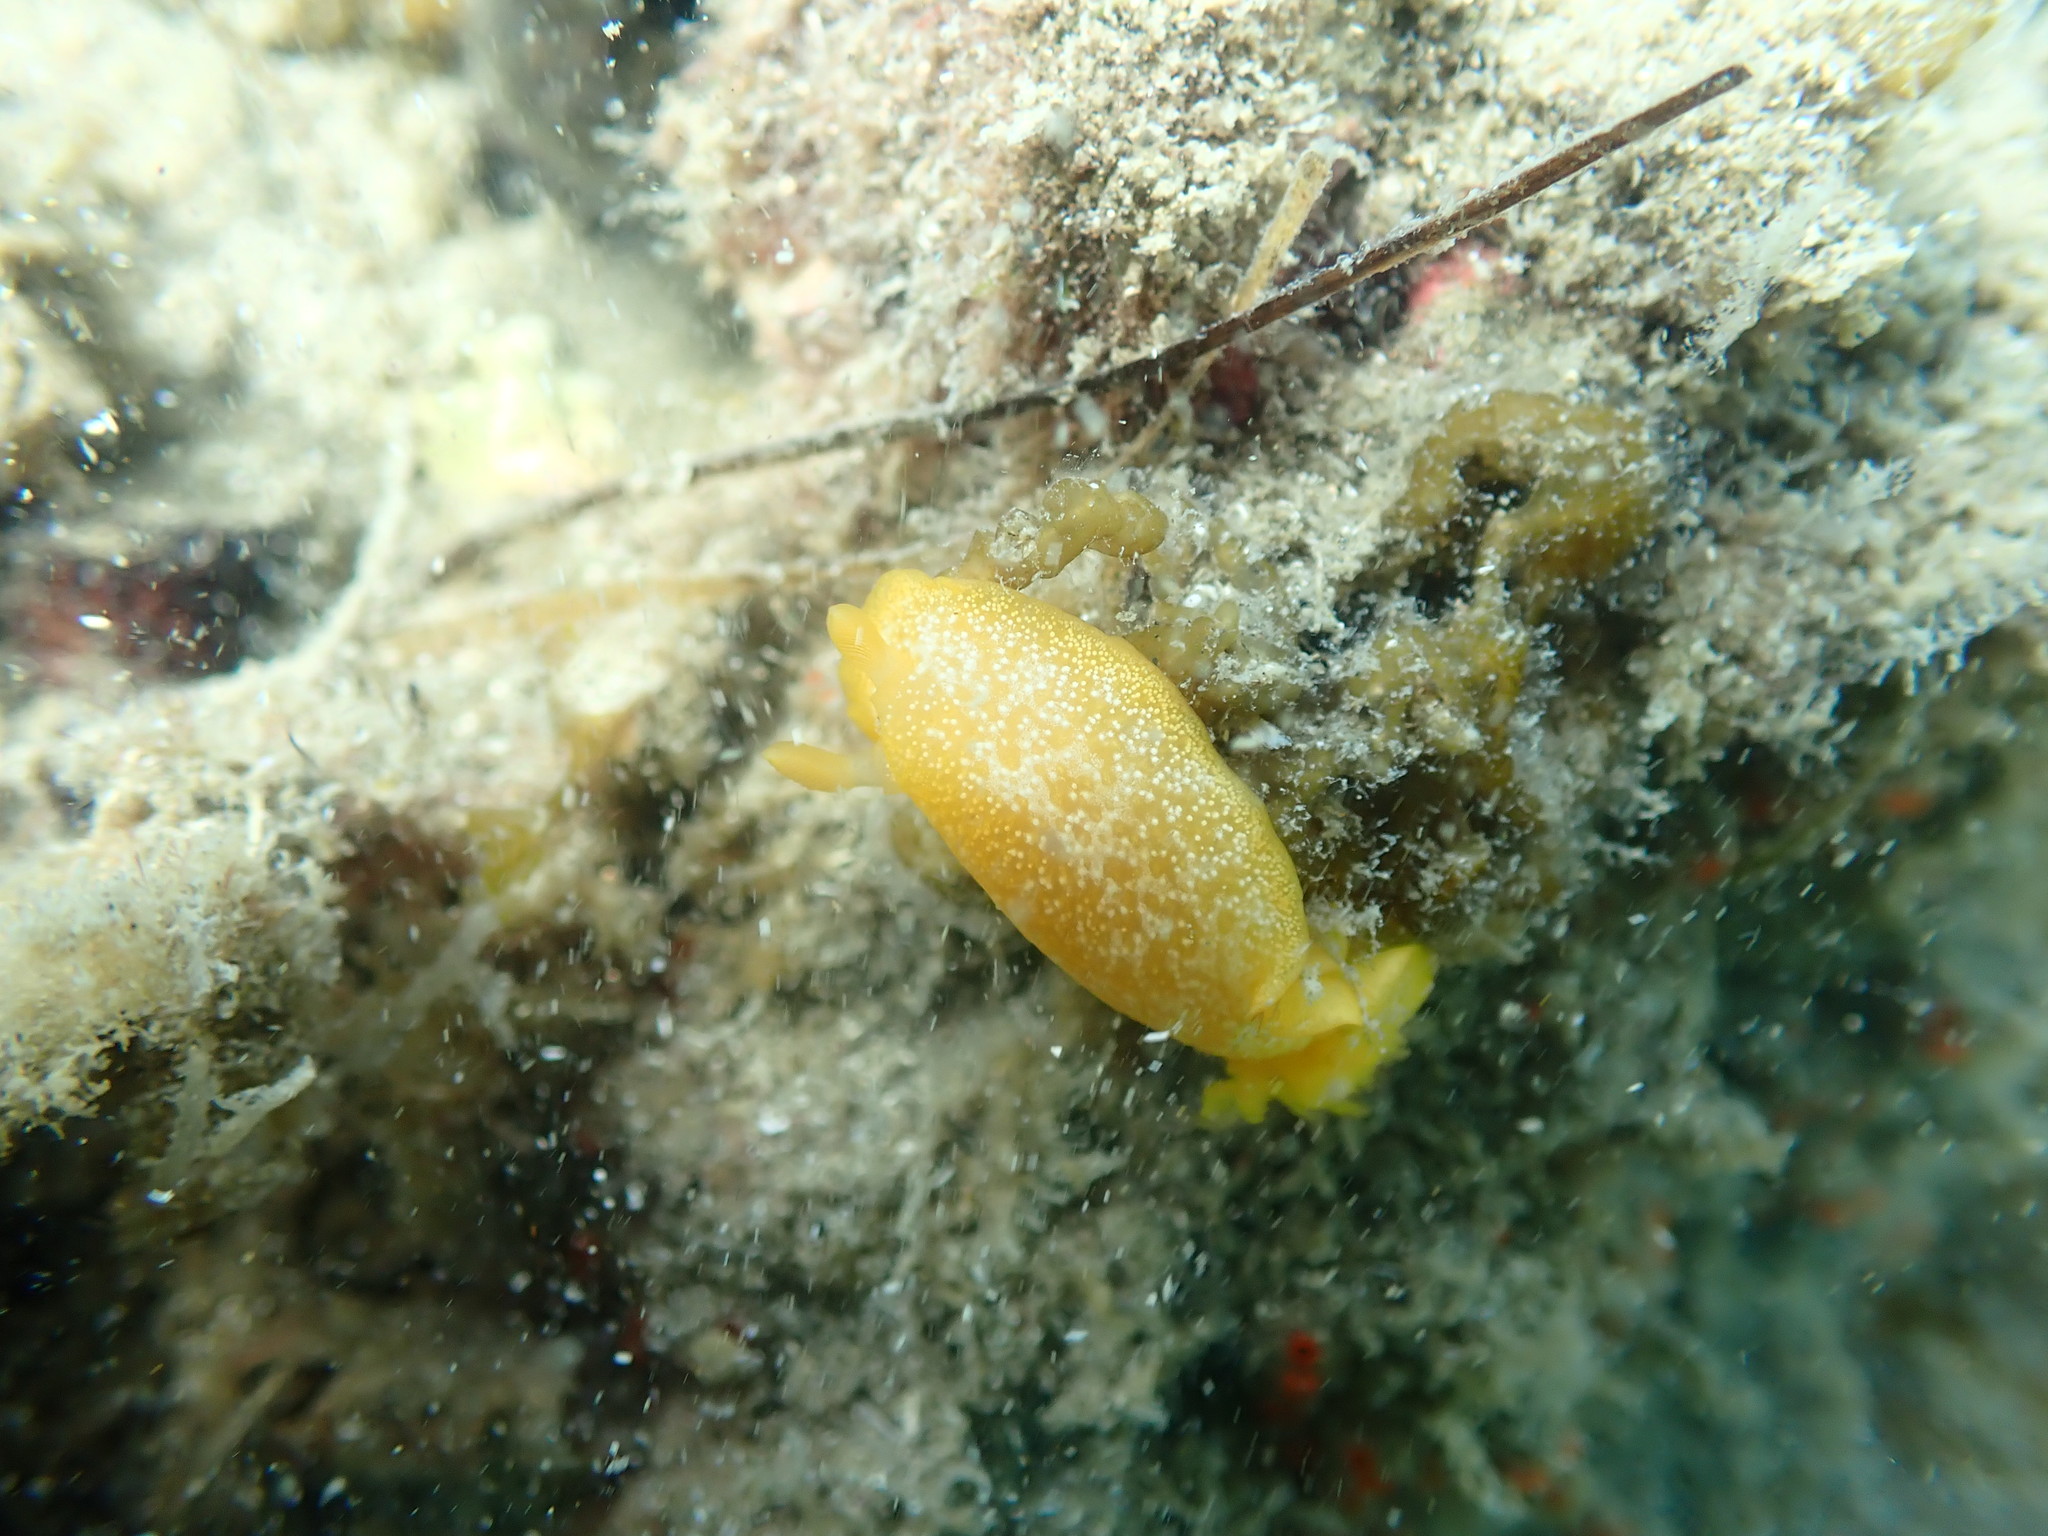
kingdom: Animalia
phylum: Mollusca
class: Gastropoda
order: Nudibranchia
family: Dendrodorididae
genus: Dendrodoris
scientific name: Dendrodoris citrina
